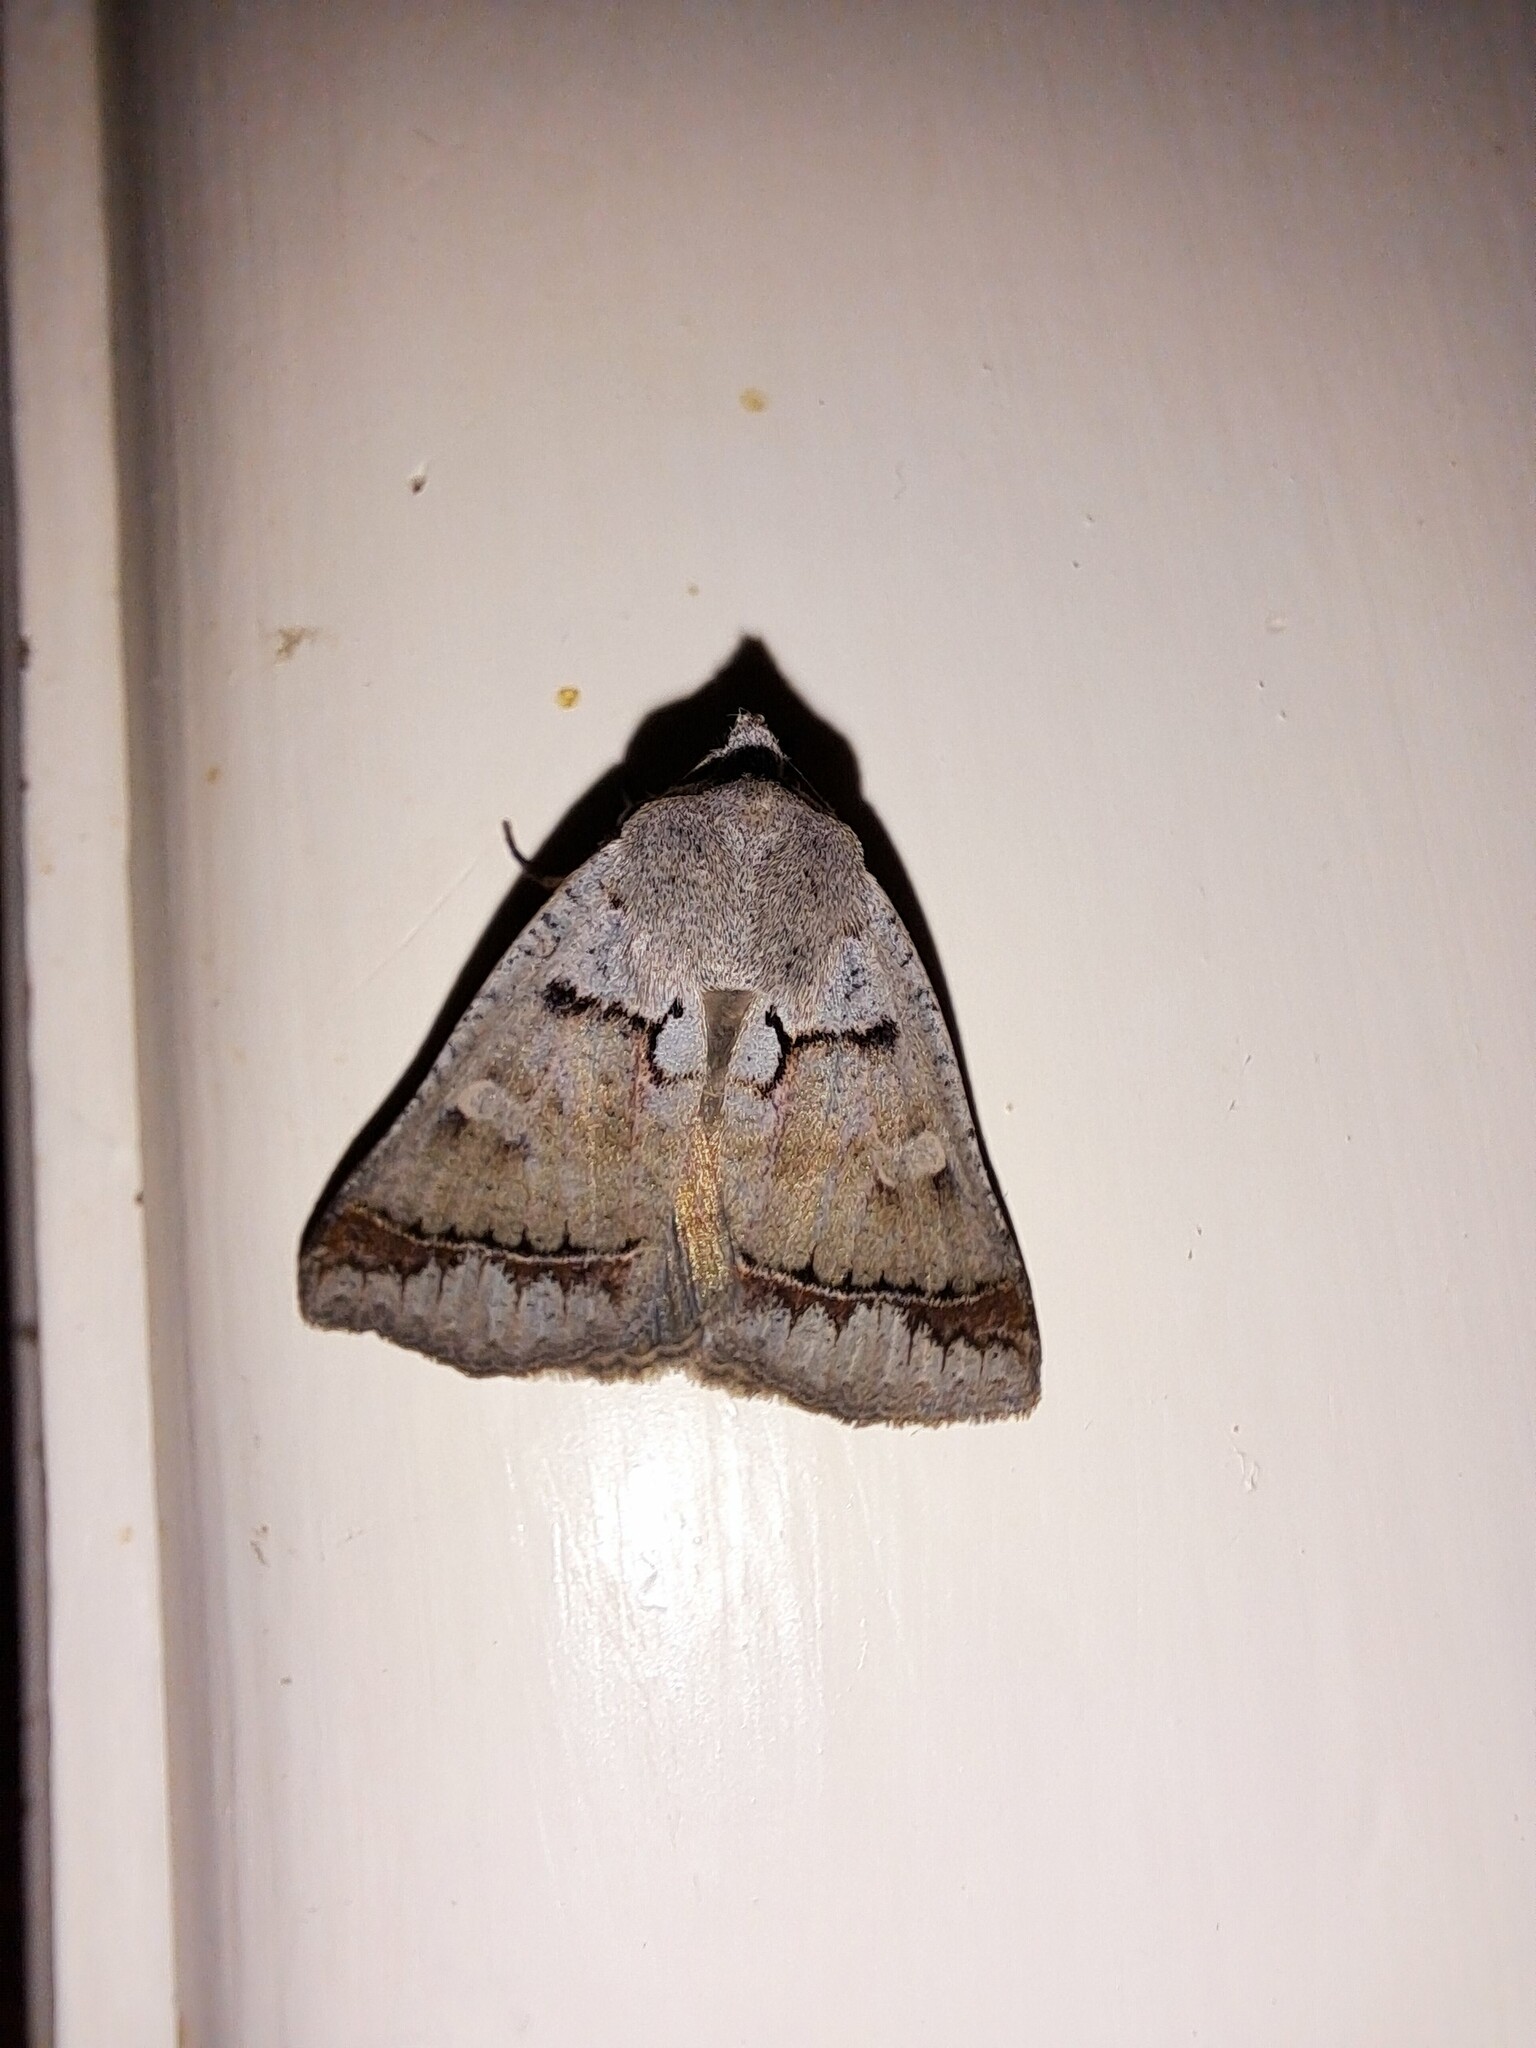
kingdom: Animalia
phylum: Arthropoda
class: Insecta
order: Lepidoptera
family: Erebidae
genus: Pantydia
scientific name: Pantydia sparsa
